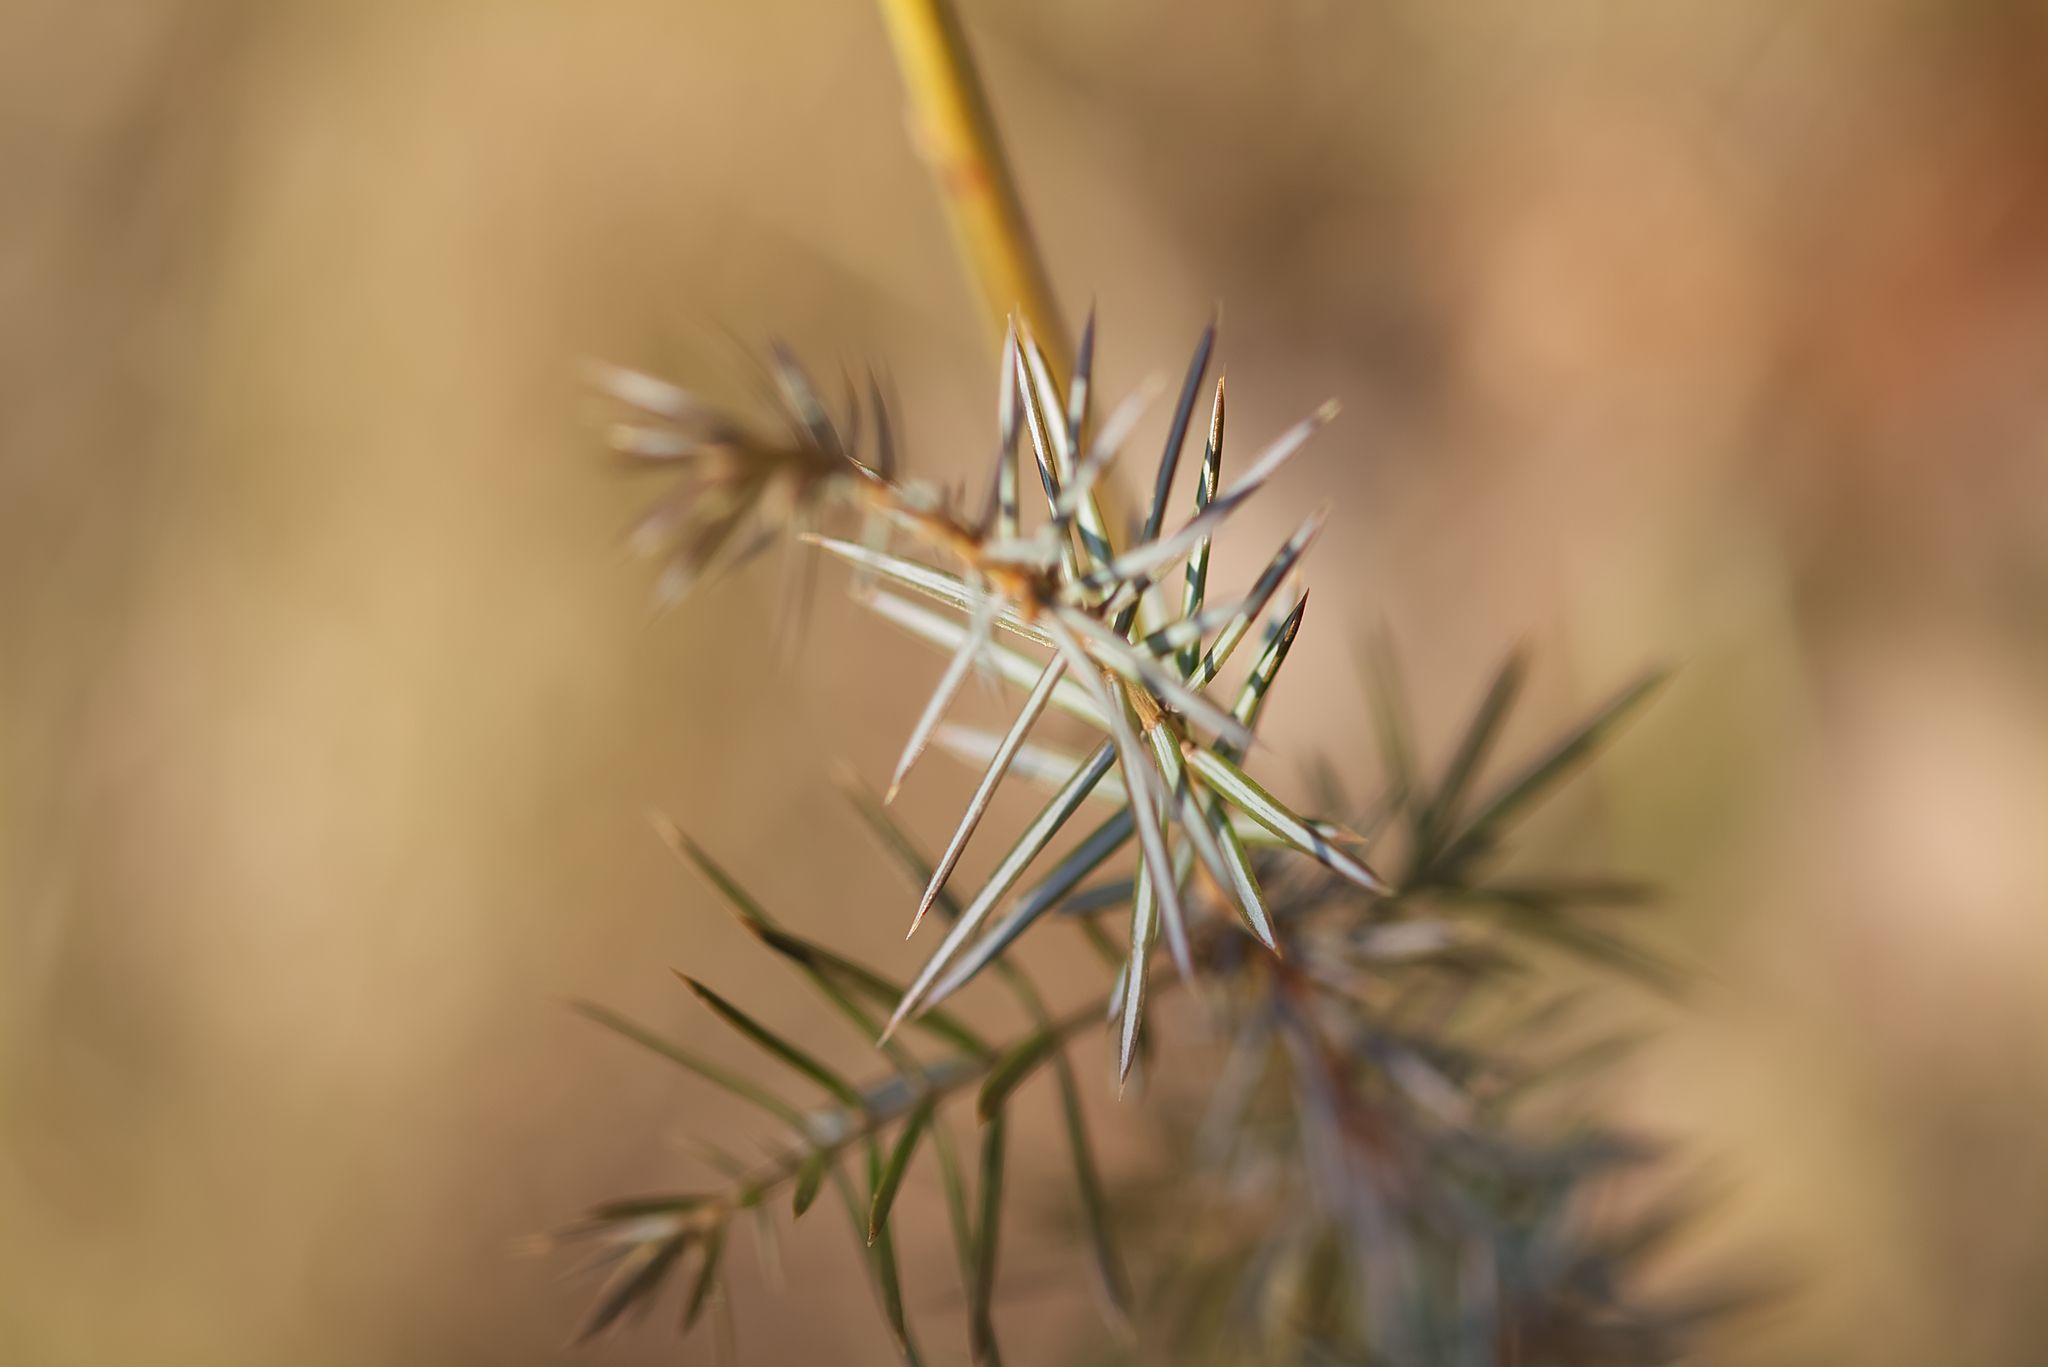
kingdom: Plantae
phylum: Tracheophyta
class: Pinopsida
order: Pinales
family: Cupressaceae
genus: Juniperus
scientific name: Juniperus communis
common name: Common juniper
